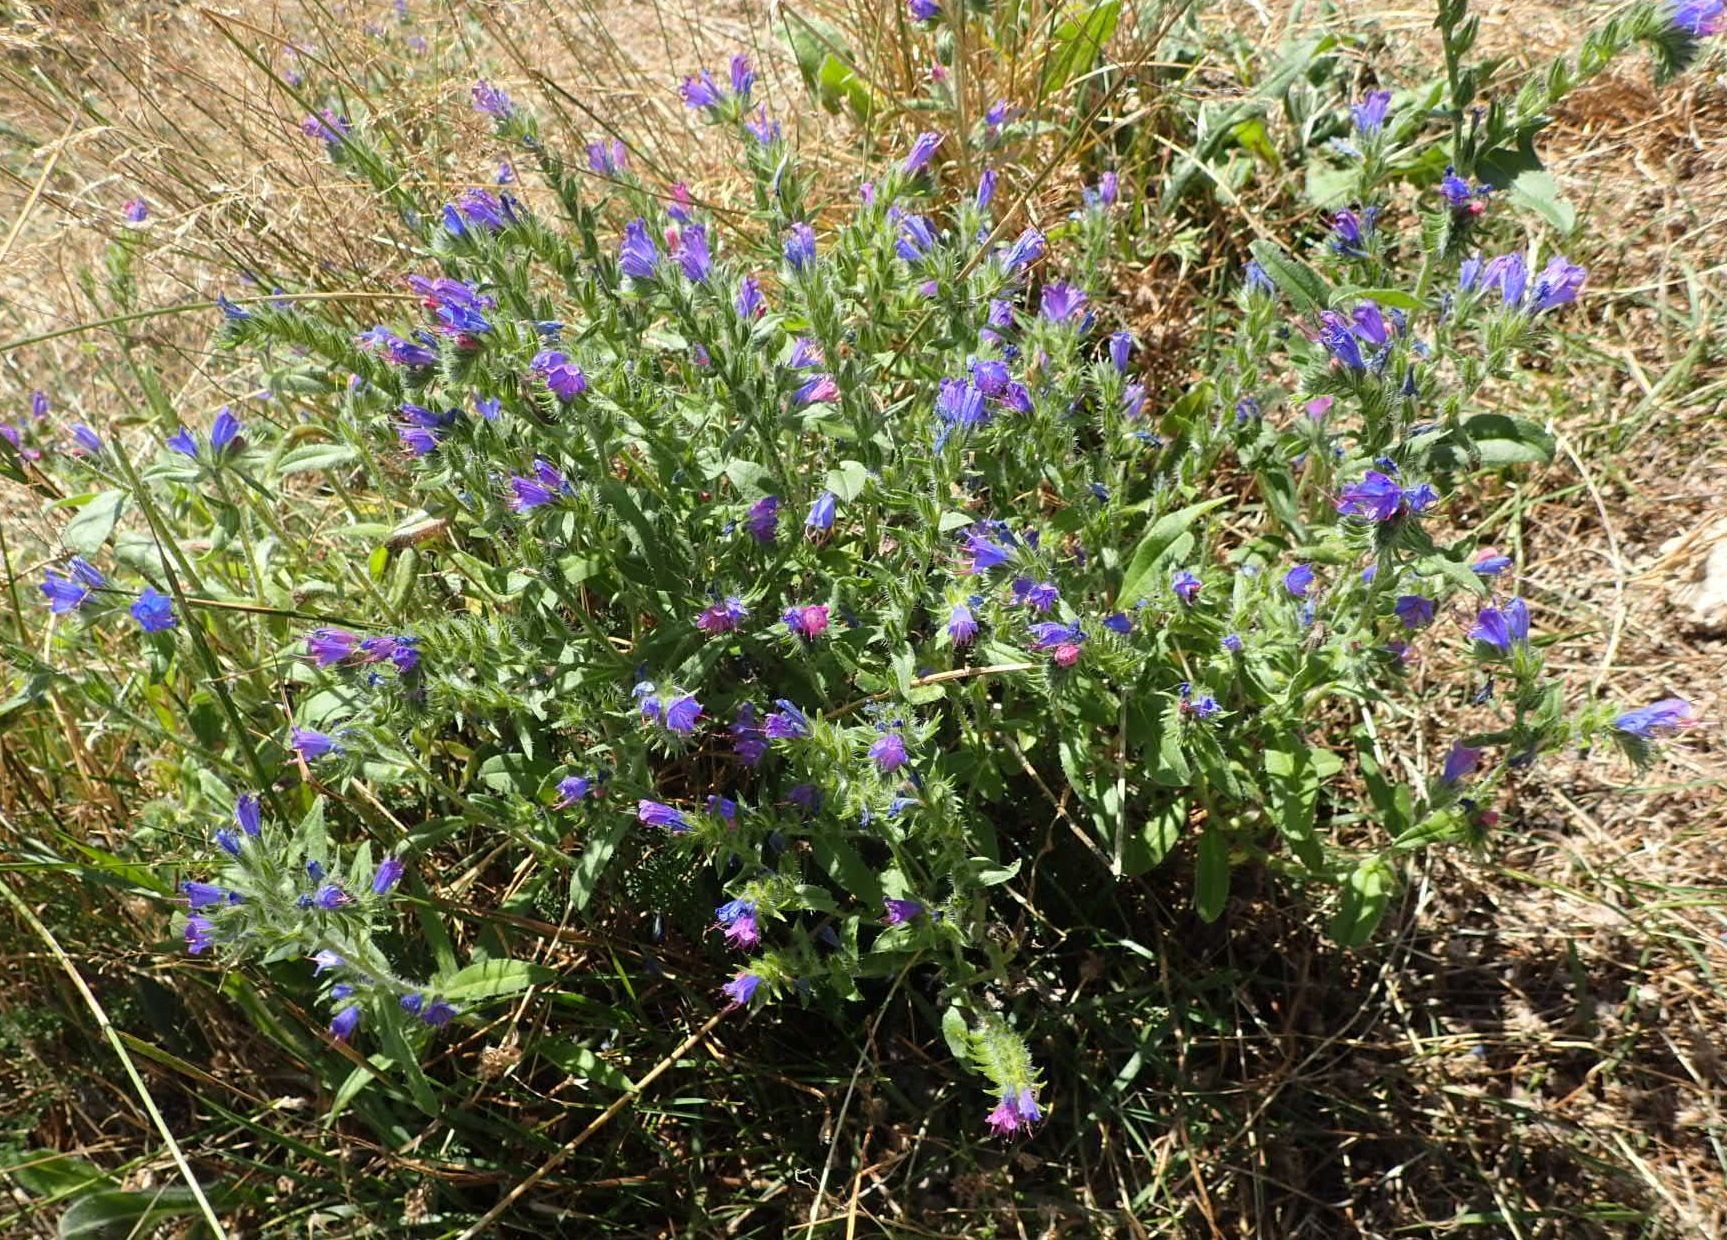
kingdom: Plantae
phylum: Tracheophyta
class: Magnoliopsida
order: Boraginales
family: Boraginaceae
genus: Echium
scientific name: Echium vulgare
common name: Common viper's bugloss
